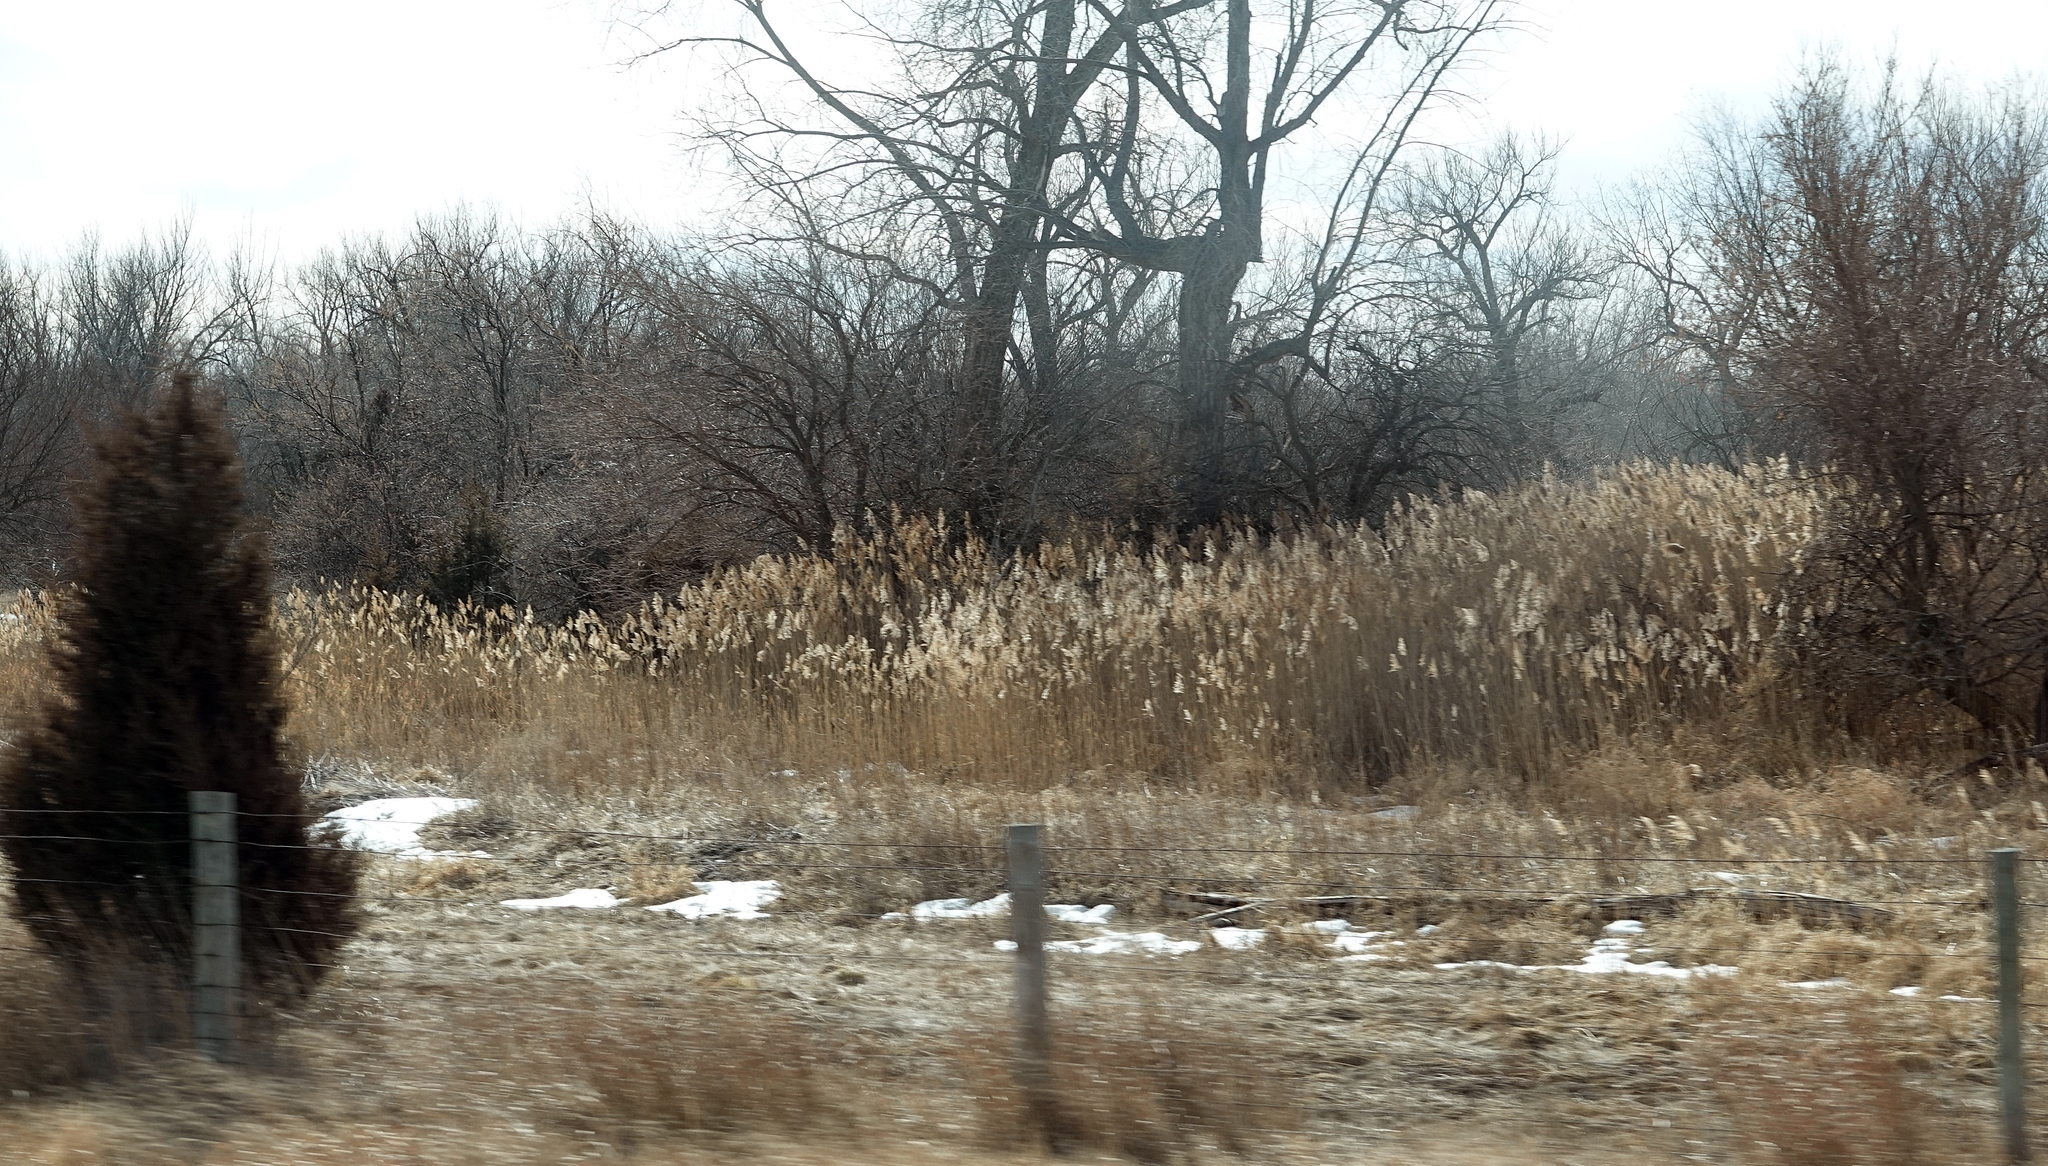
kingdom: Plantae
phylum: Tracheophyta
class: Liliopsida
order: Poales
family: Poaceae
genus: Phragmites
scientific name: Phragmites australis
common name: Common reed
